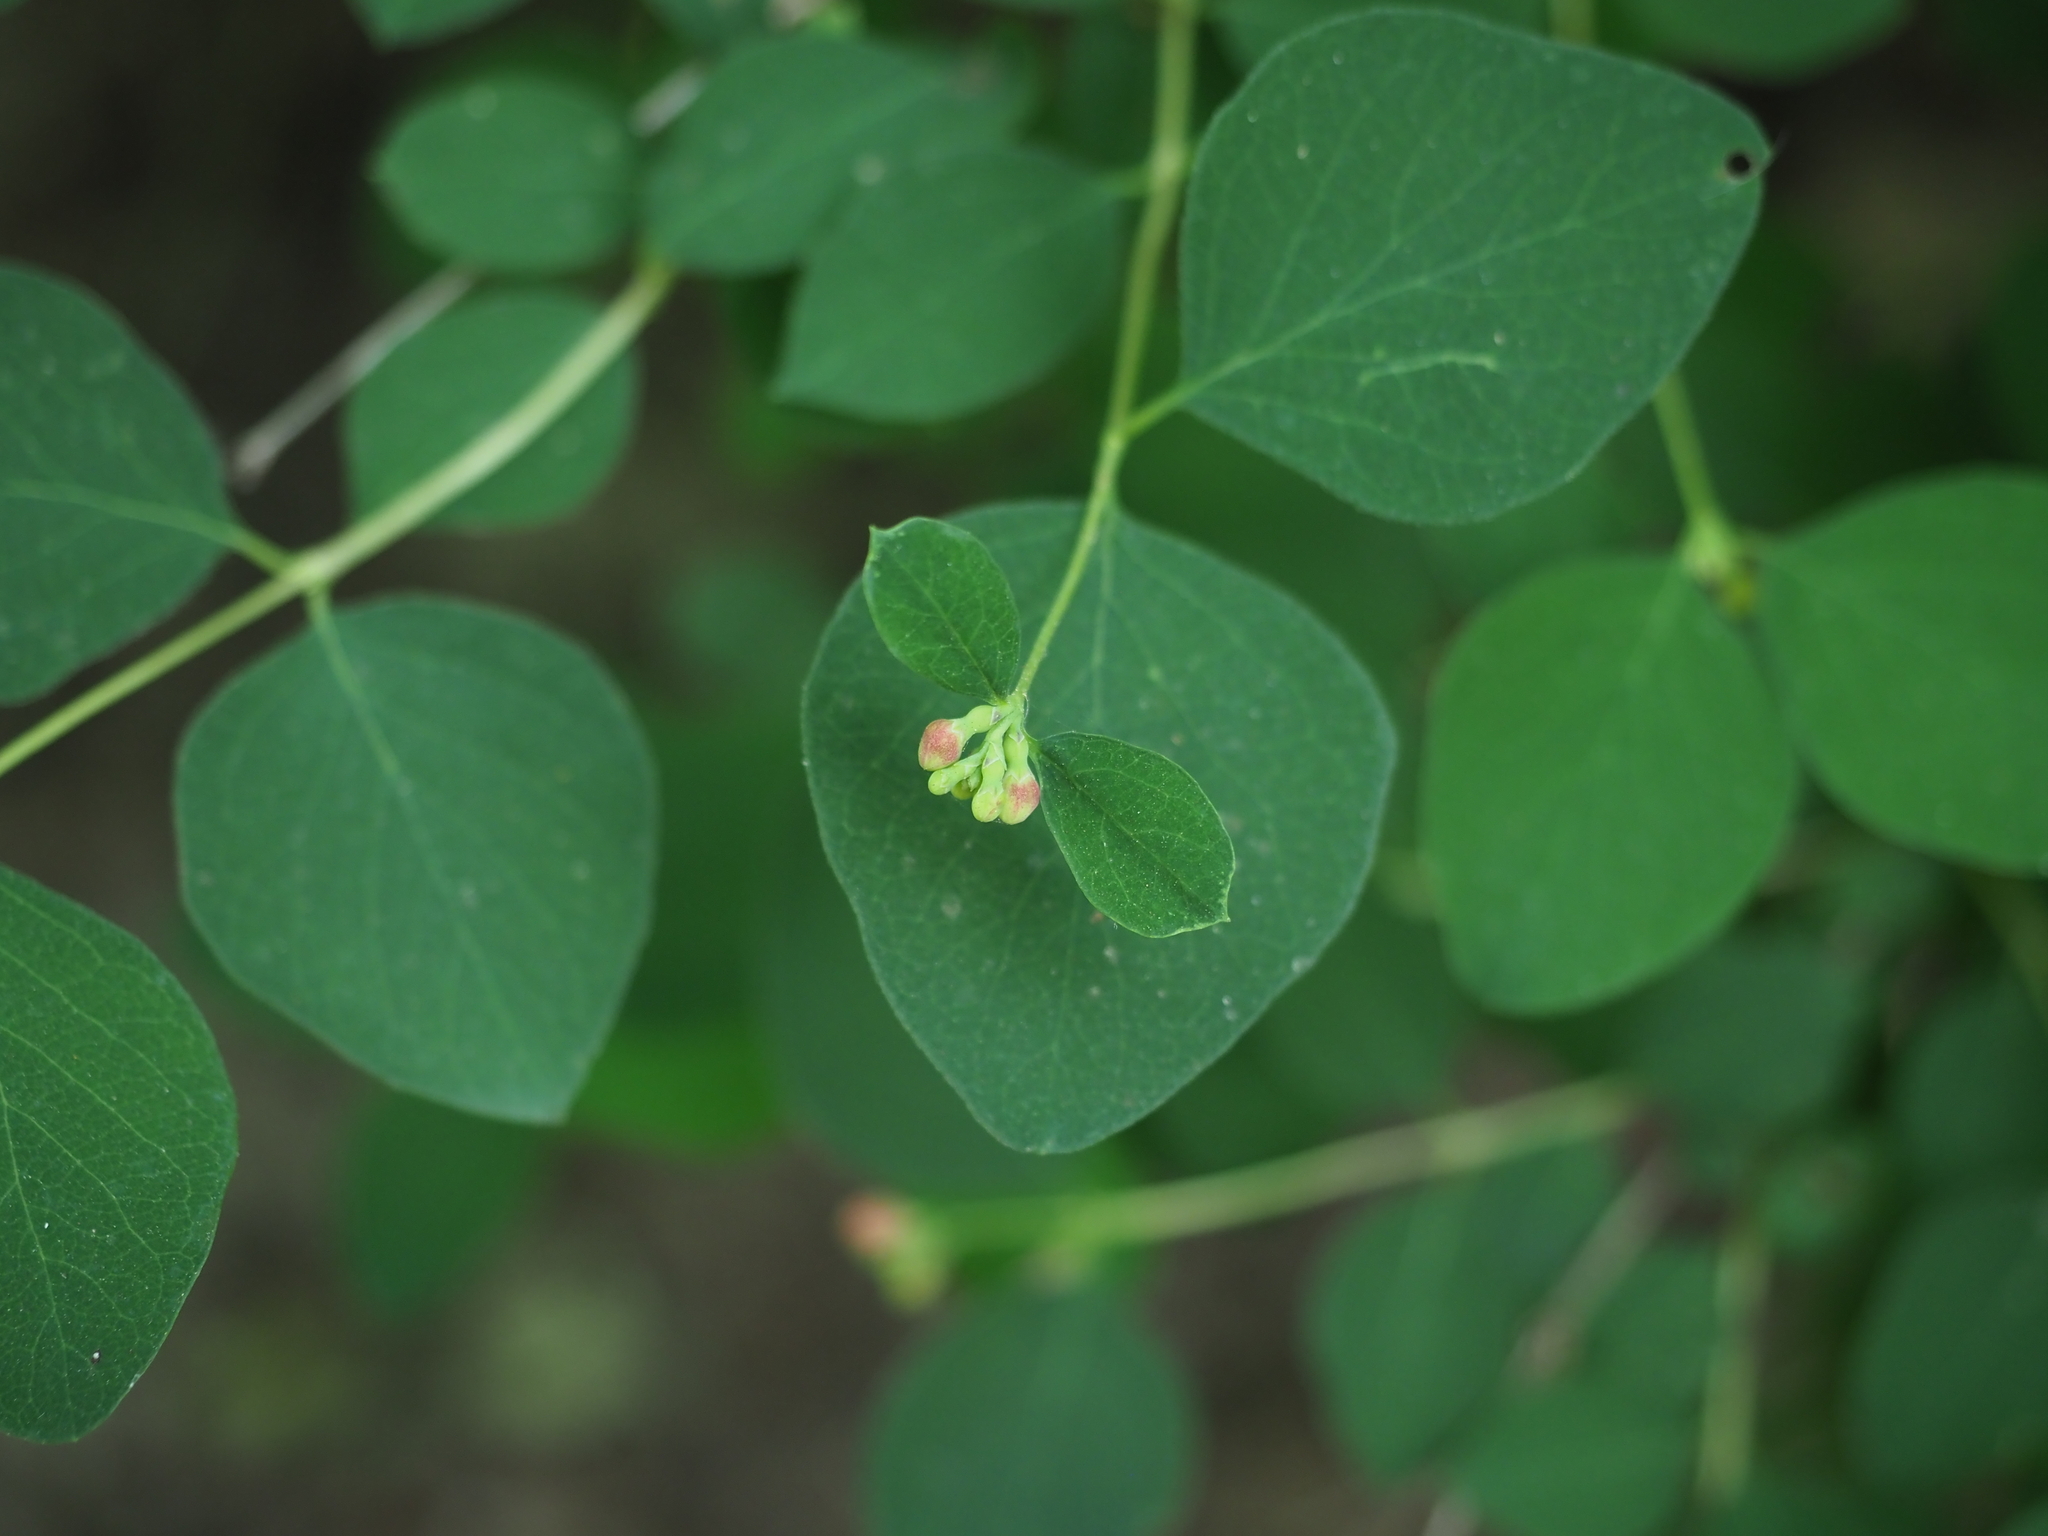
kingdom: Plantae
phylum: Tracheophyta
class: Magnoliopsida
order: Dipsacales
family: Caprifoliaceae
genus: Symphoricarpos
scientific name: Symphoricarpos albus
